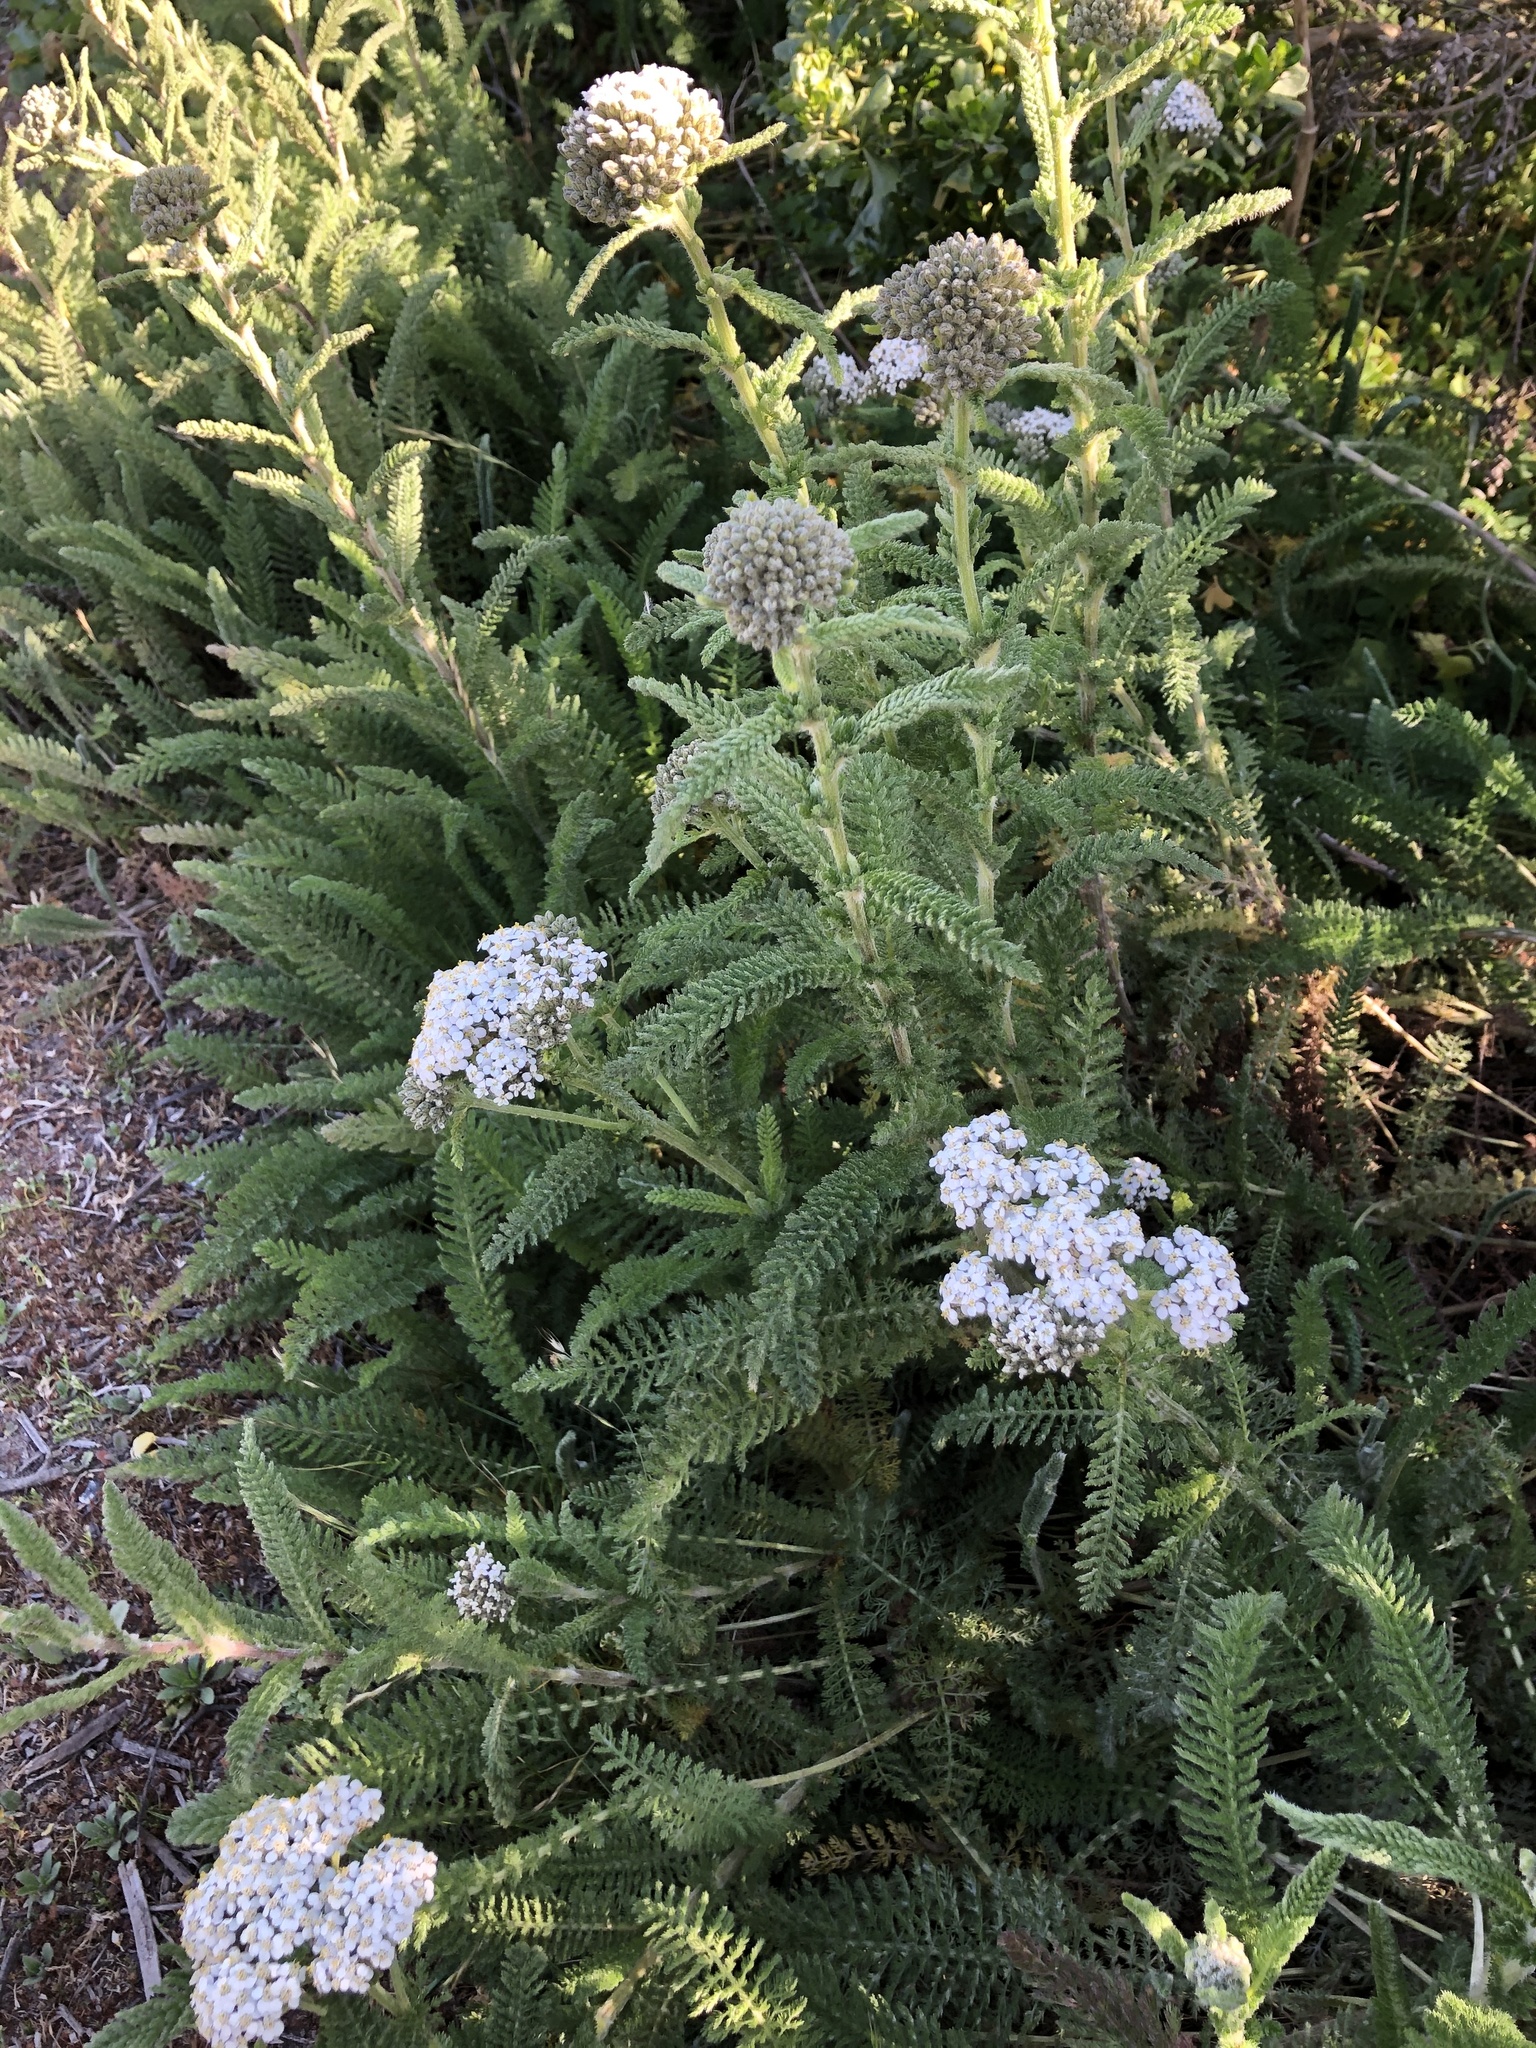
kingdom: Plantae
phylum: Tracheophyta
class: Magnoliopsida
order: Asterales
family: Asteraceae
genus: Achillea
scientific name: Achillea millefolium
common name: Yarrow
